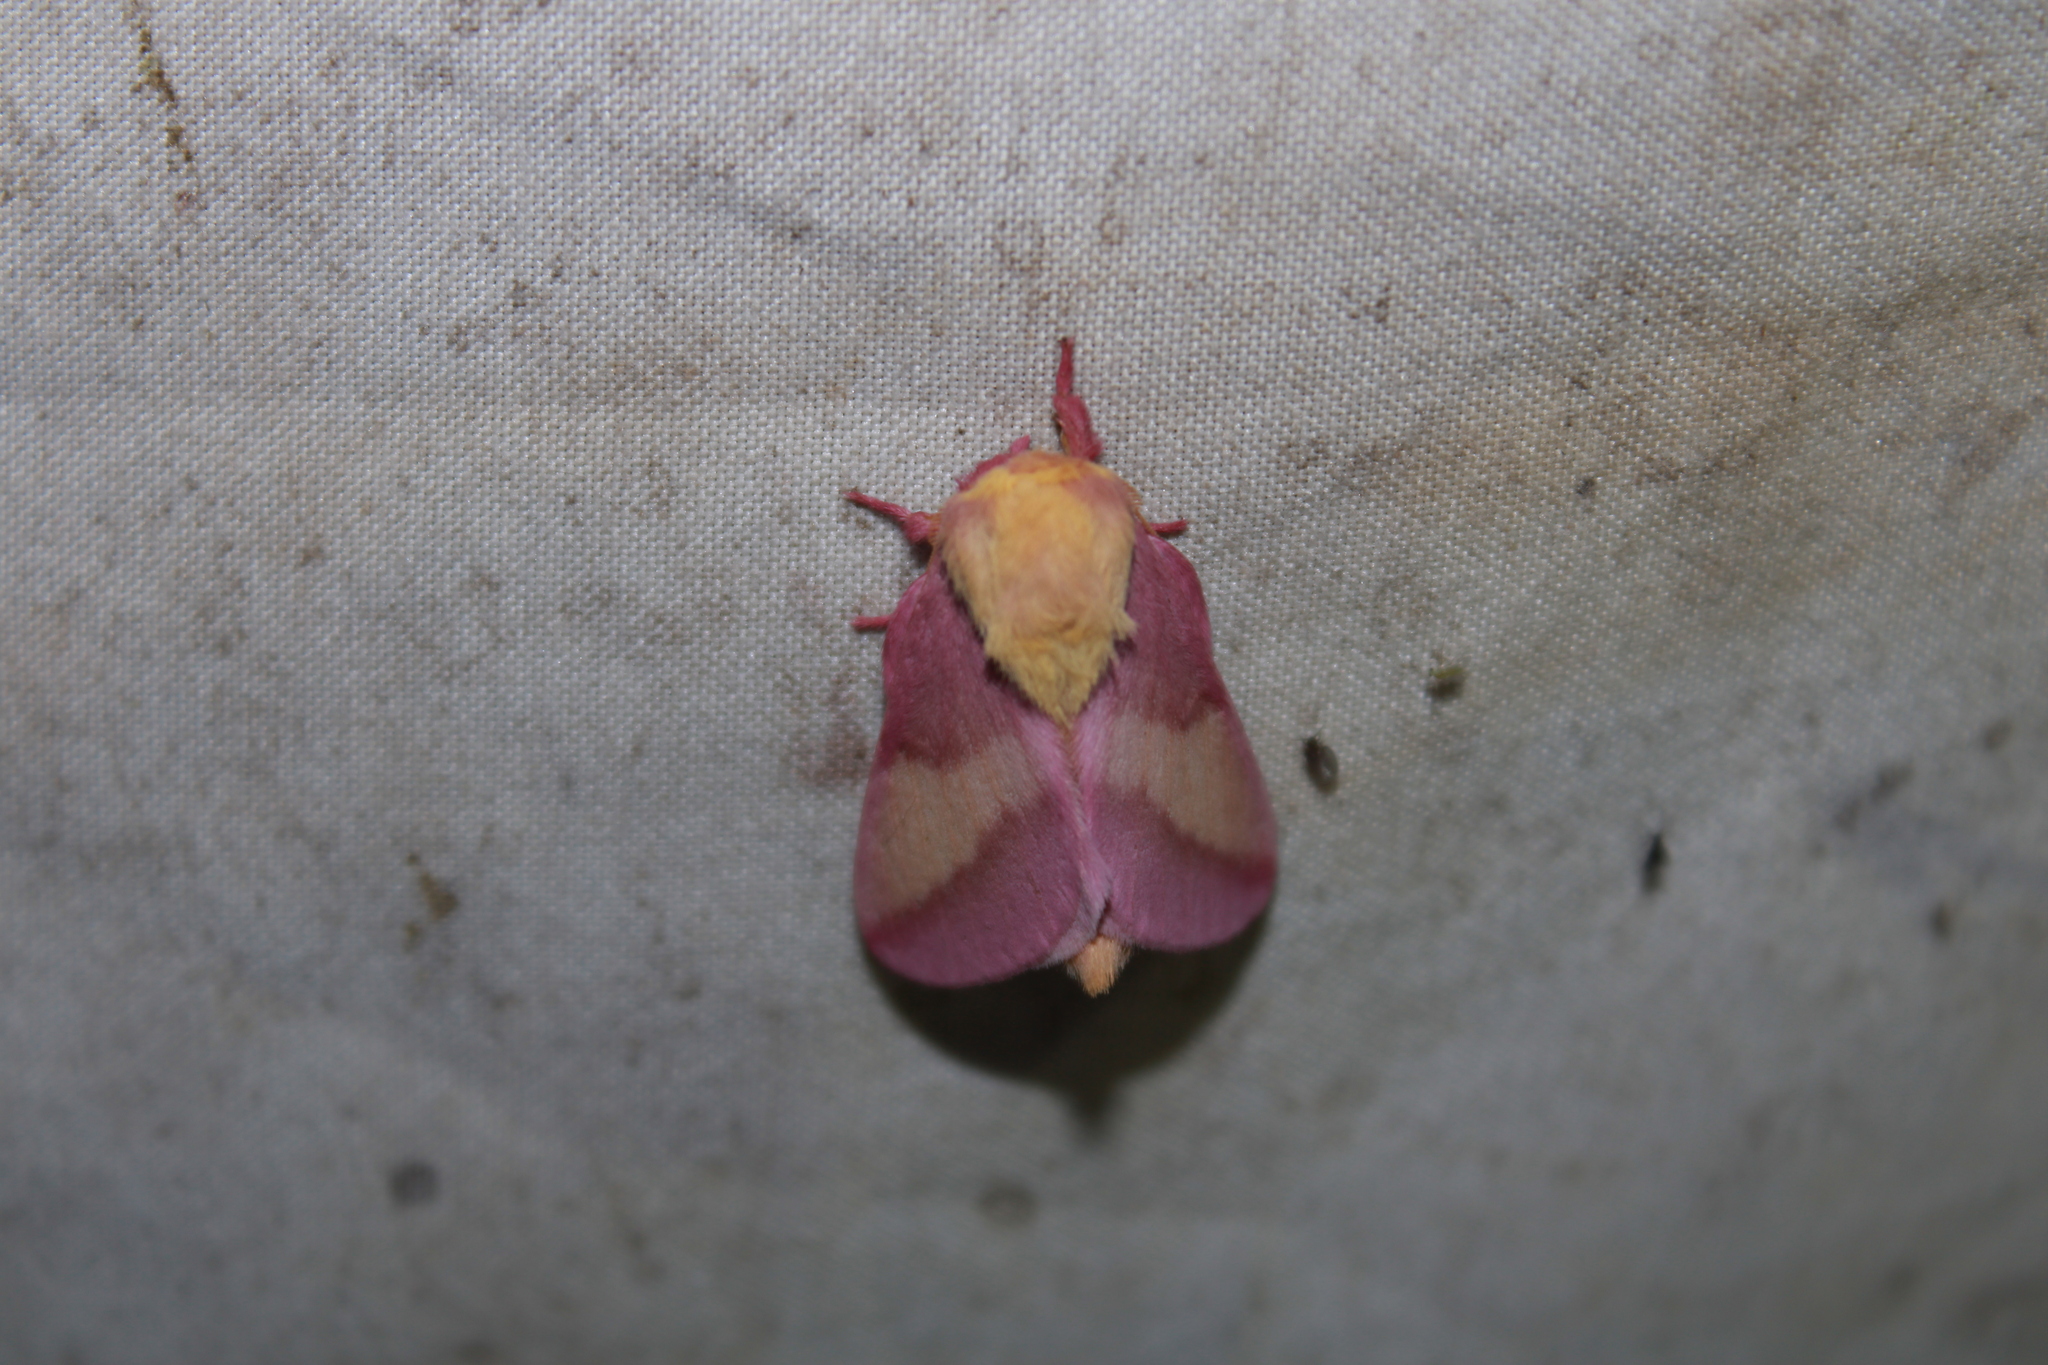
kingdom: Animalia
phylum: Arthropoda
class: Insecta
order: Lepidoptera
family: Saturniidae
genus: Dryocampa
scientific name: Dryocampa rubicunda
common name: Rosy maple moth
